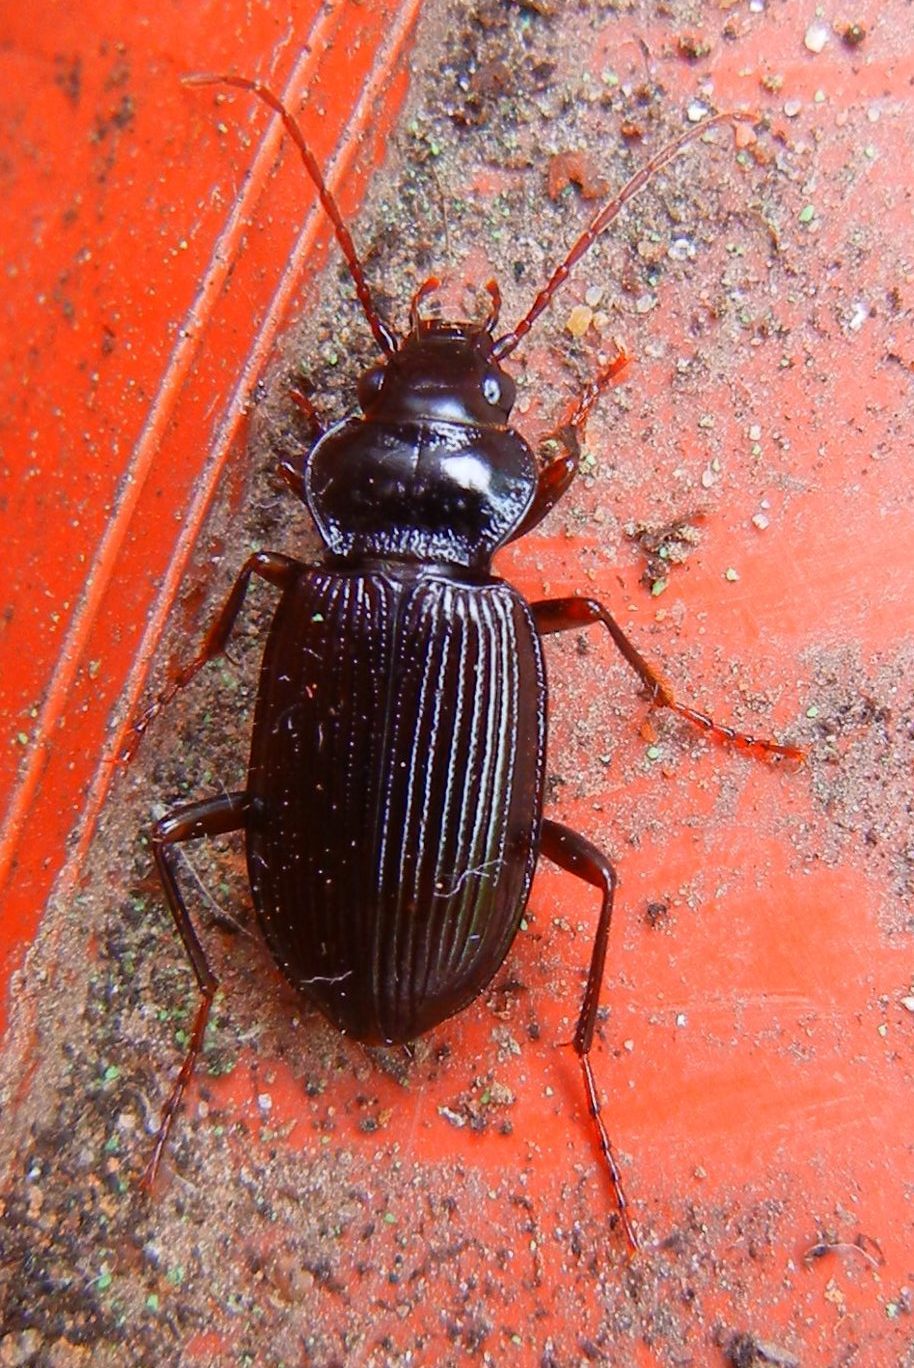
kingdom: Animalia
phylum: Arthropoda
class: Insecta
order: Coleoptera
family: Carabidae
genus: Nebria
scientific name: Nebria brevicollis
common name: Short-necked gazelle beetle
